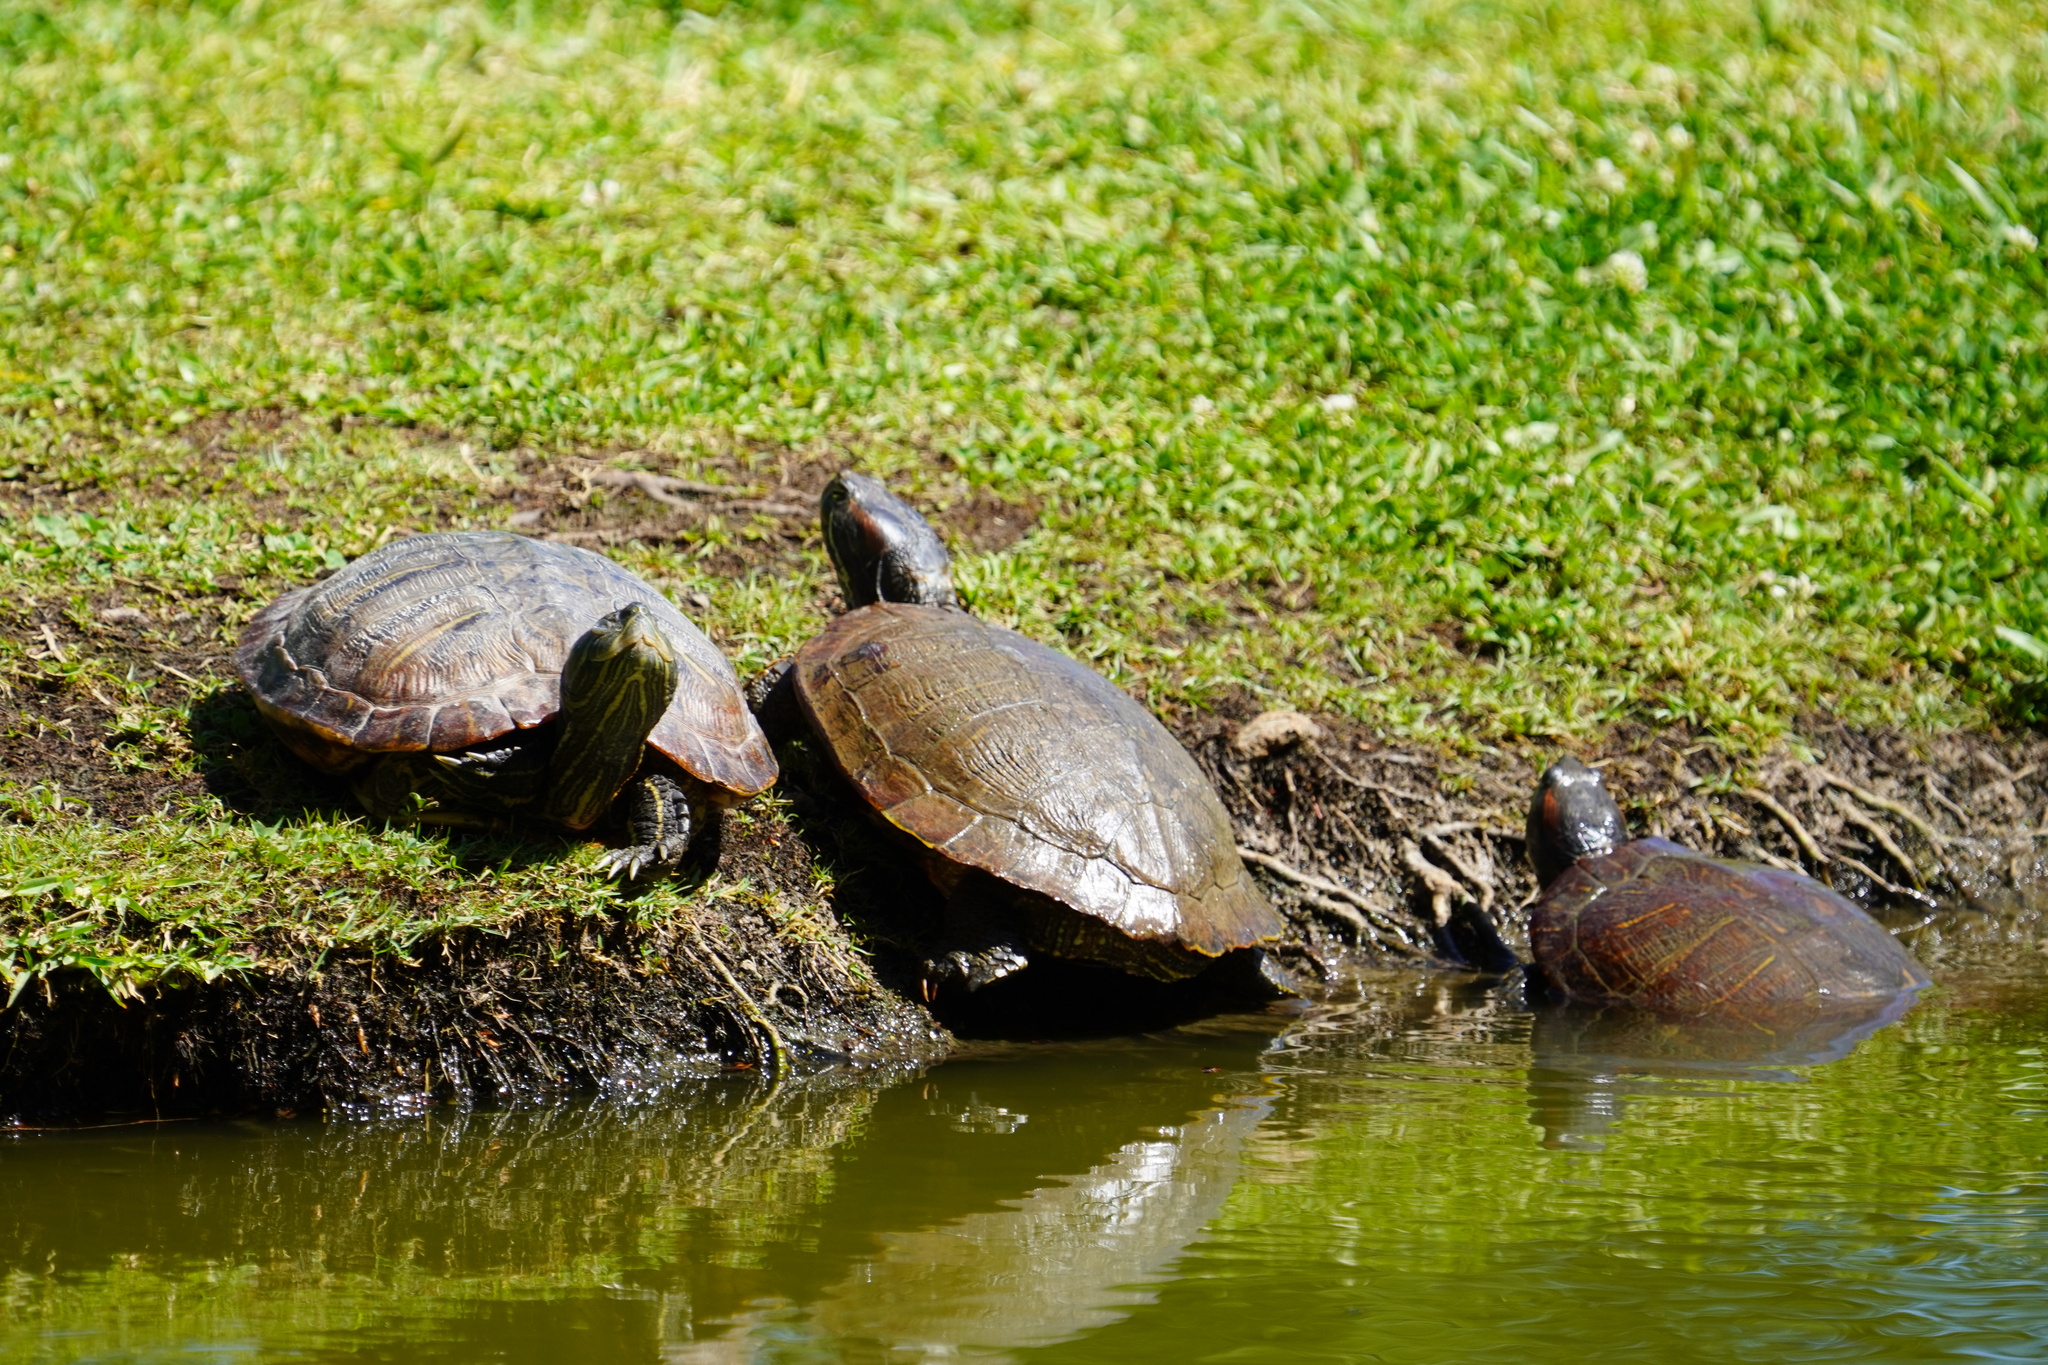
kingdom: Animalia
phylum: Chordata
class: Testudines
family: Emydidae
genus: Trachemys
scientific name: Trachemys scripta
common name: Slider
